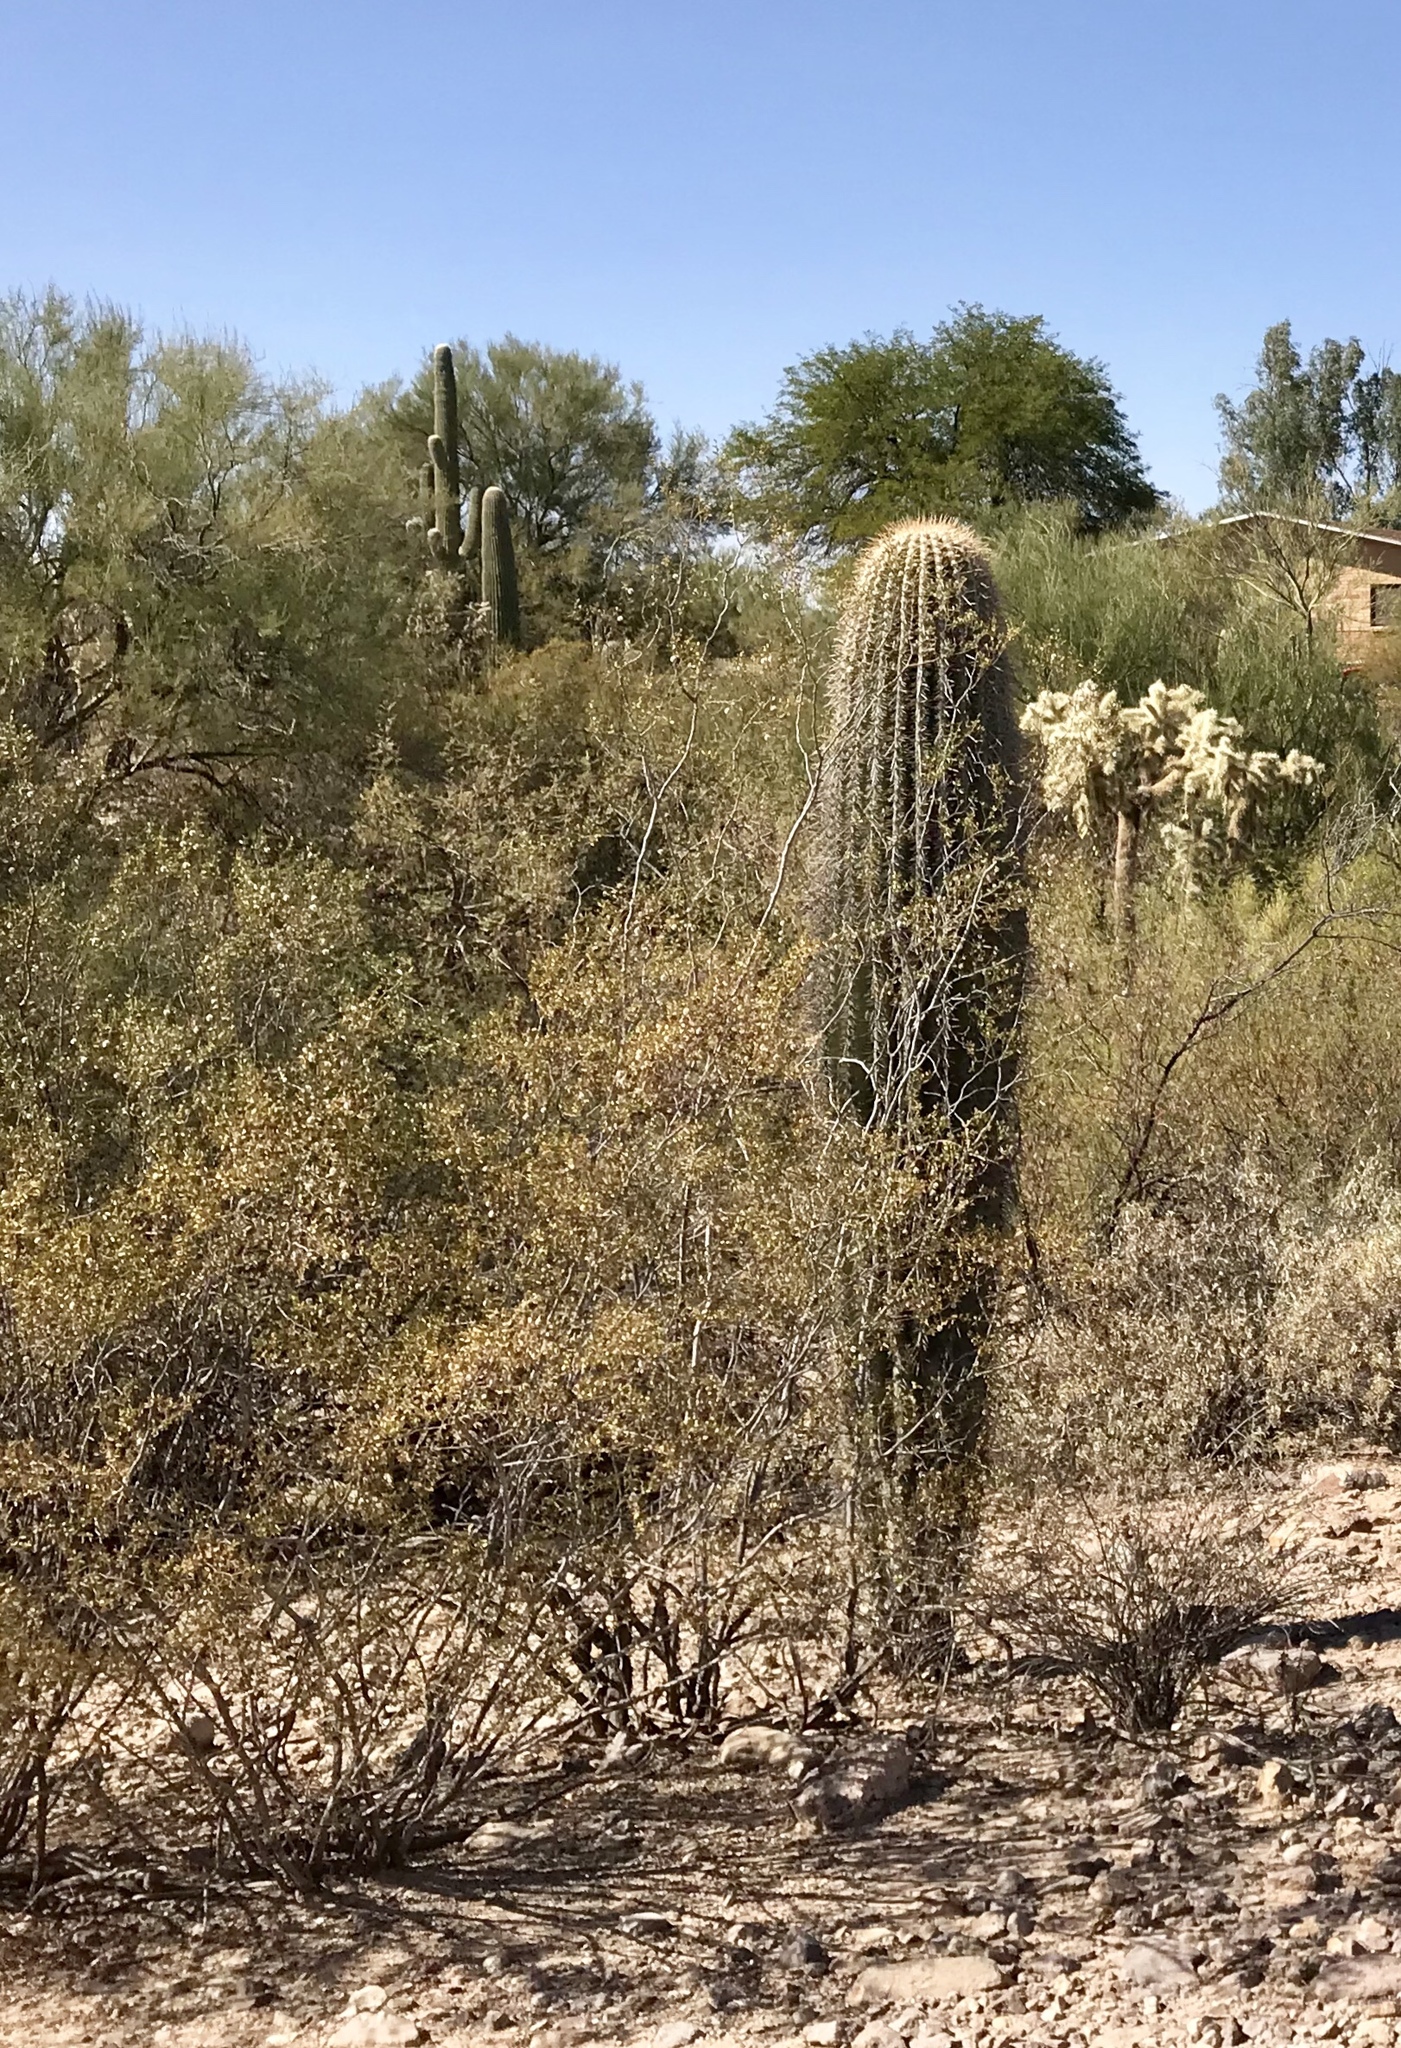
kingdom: Plantae
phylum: Tracheophyta
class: Magnoliopsida
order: Zygophyllales
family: Zygophyllaceae
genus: Larrea
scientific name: Larrea tridentata
